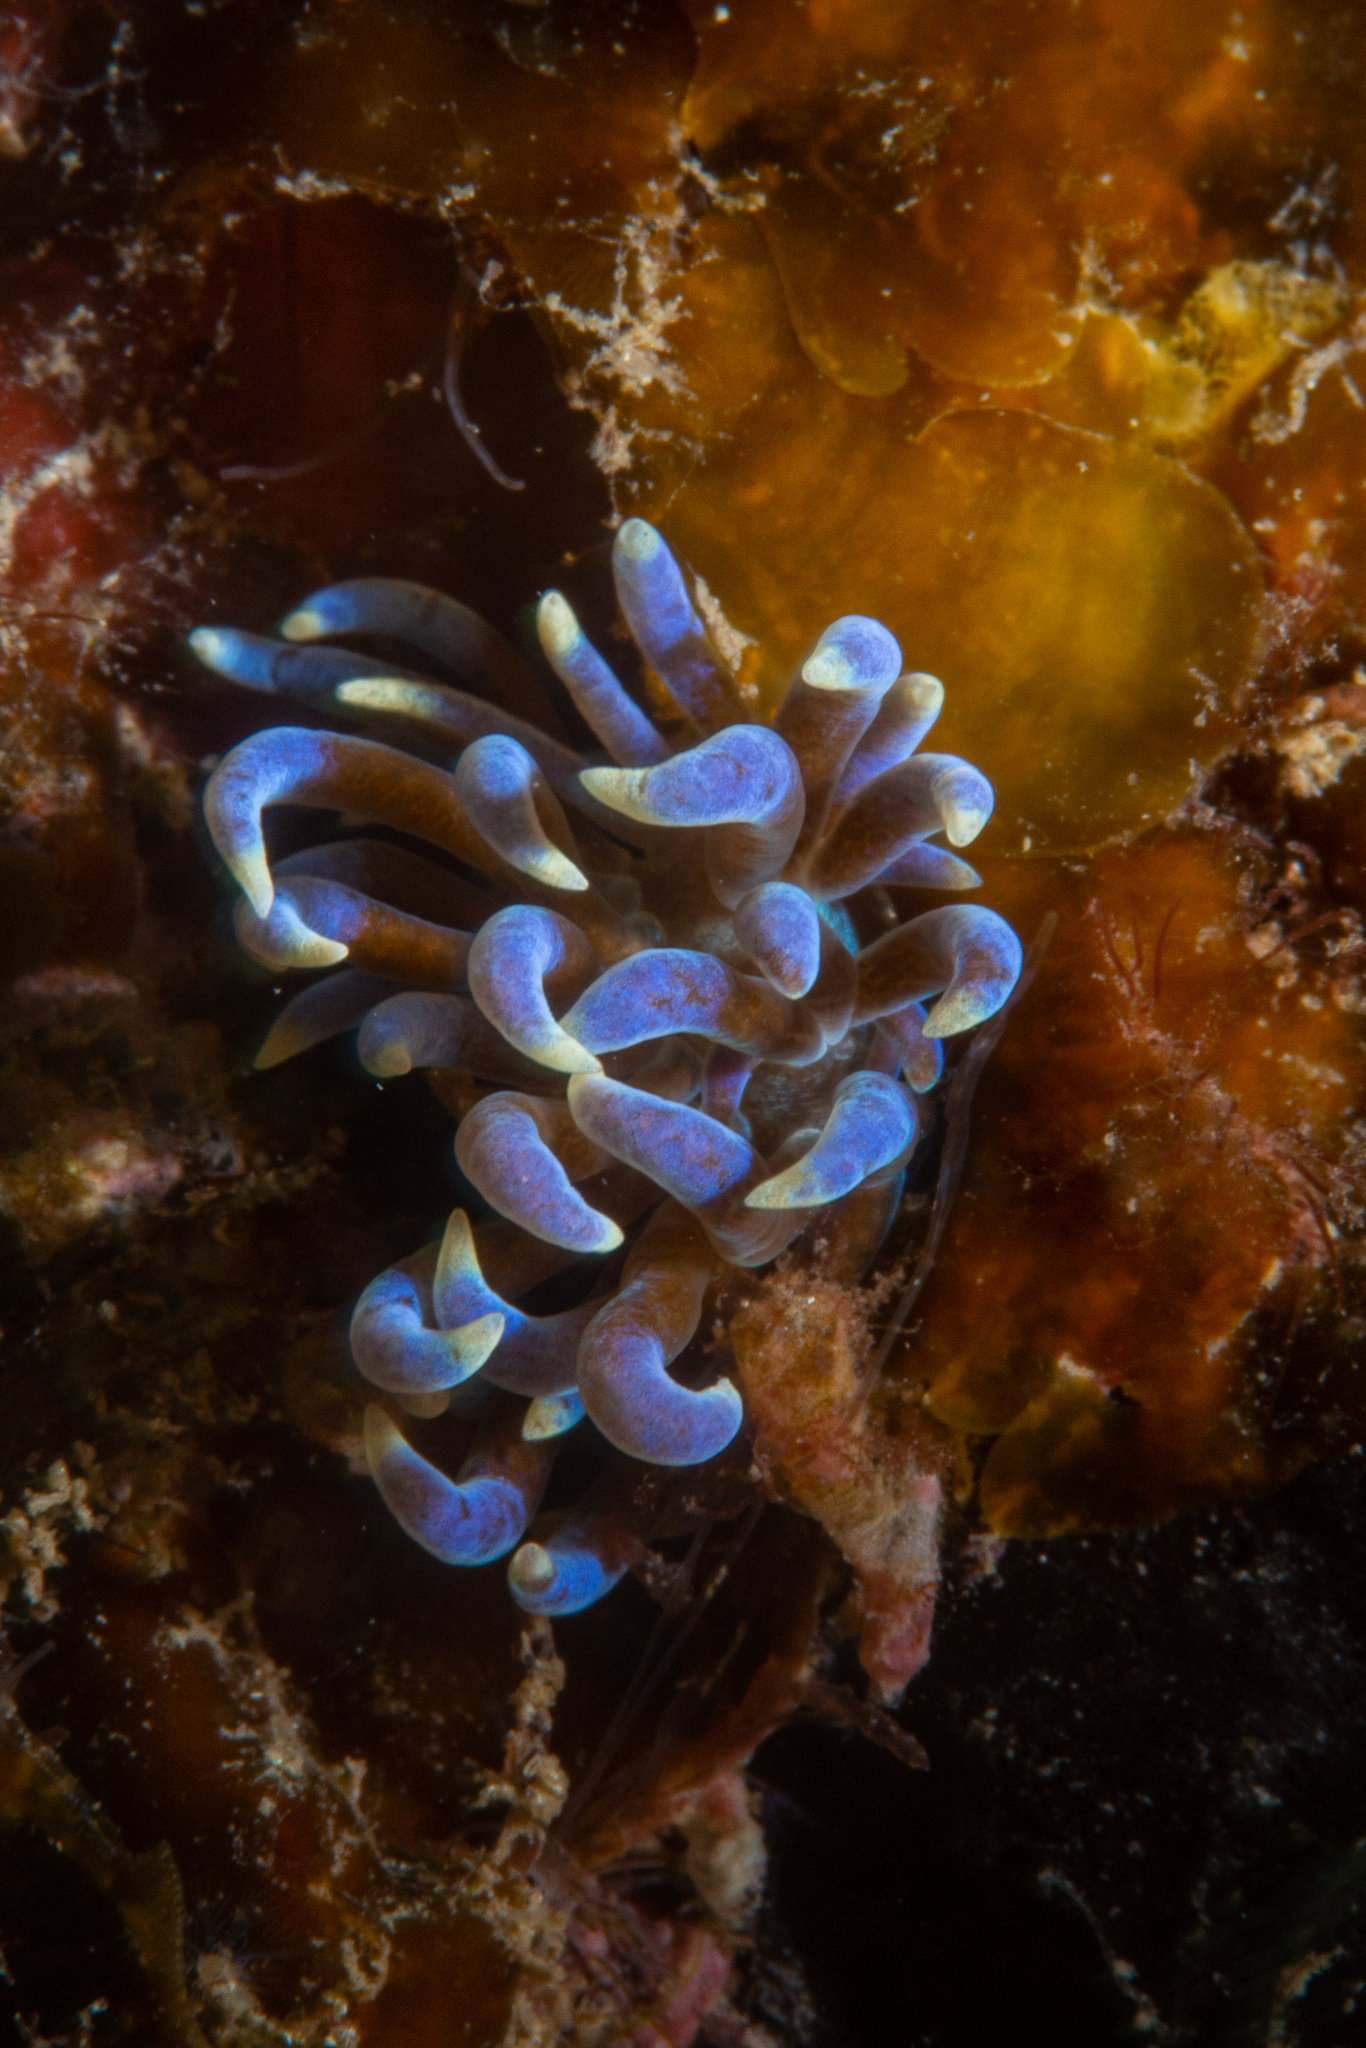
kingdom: Animalia
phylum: Mollusca
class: Gastropoda
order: Nudibranchia
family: Myrrhinidae
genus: Phyllodesmium
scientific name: Phyllodesmium macphersonae
